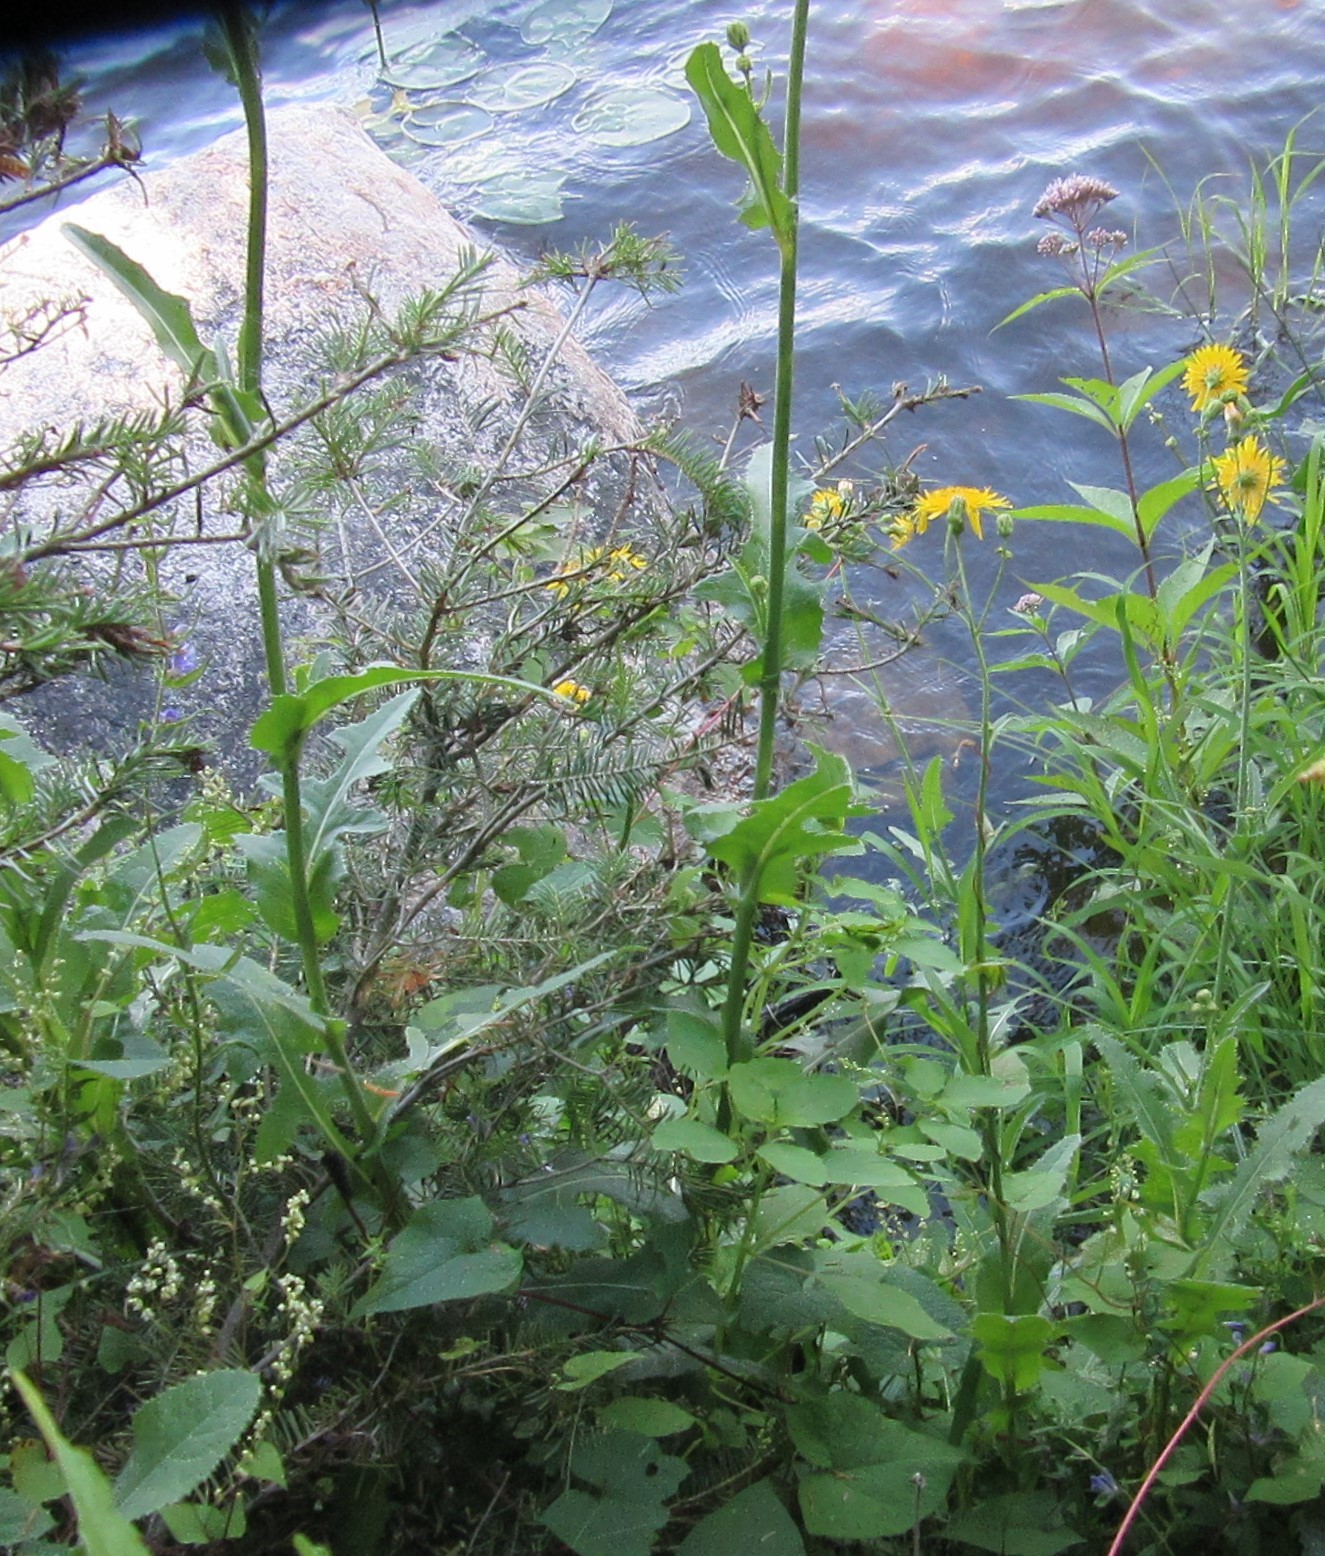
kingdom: Plantae
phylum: Tracheophyta
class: Magnoliopsida
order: Asterales
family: Asteraceae
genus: Sonchus
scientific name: Sonchus arvensis
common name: Perennial sow-thistle
